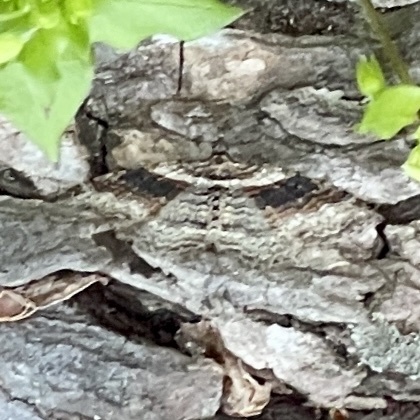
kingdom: Animalia
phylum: Arthropoda
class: Insecta
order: Lepidoptera
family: Geometridae
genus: Costaconvexa
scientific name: Costaconvexa centrostrigaria
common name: Bent-line carpet
